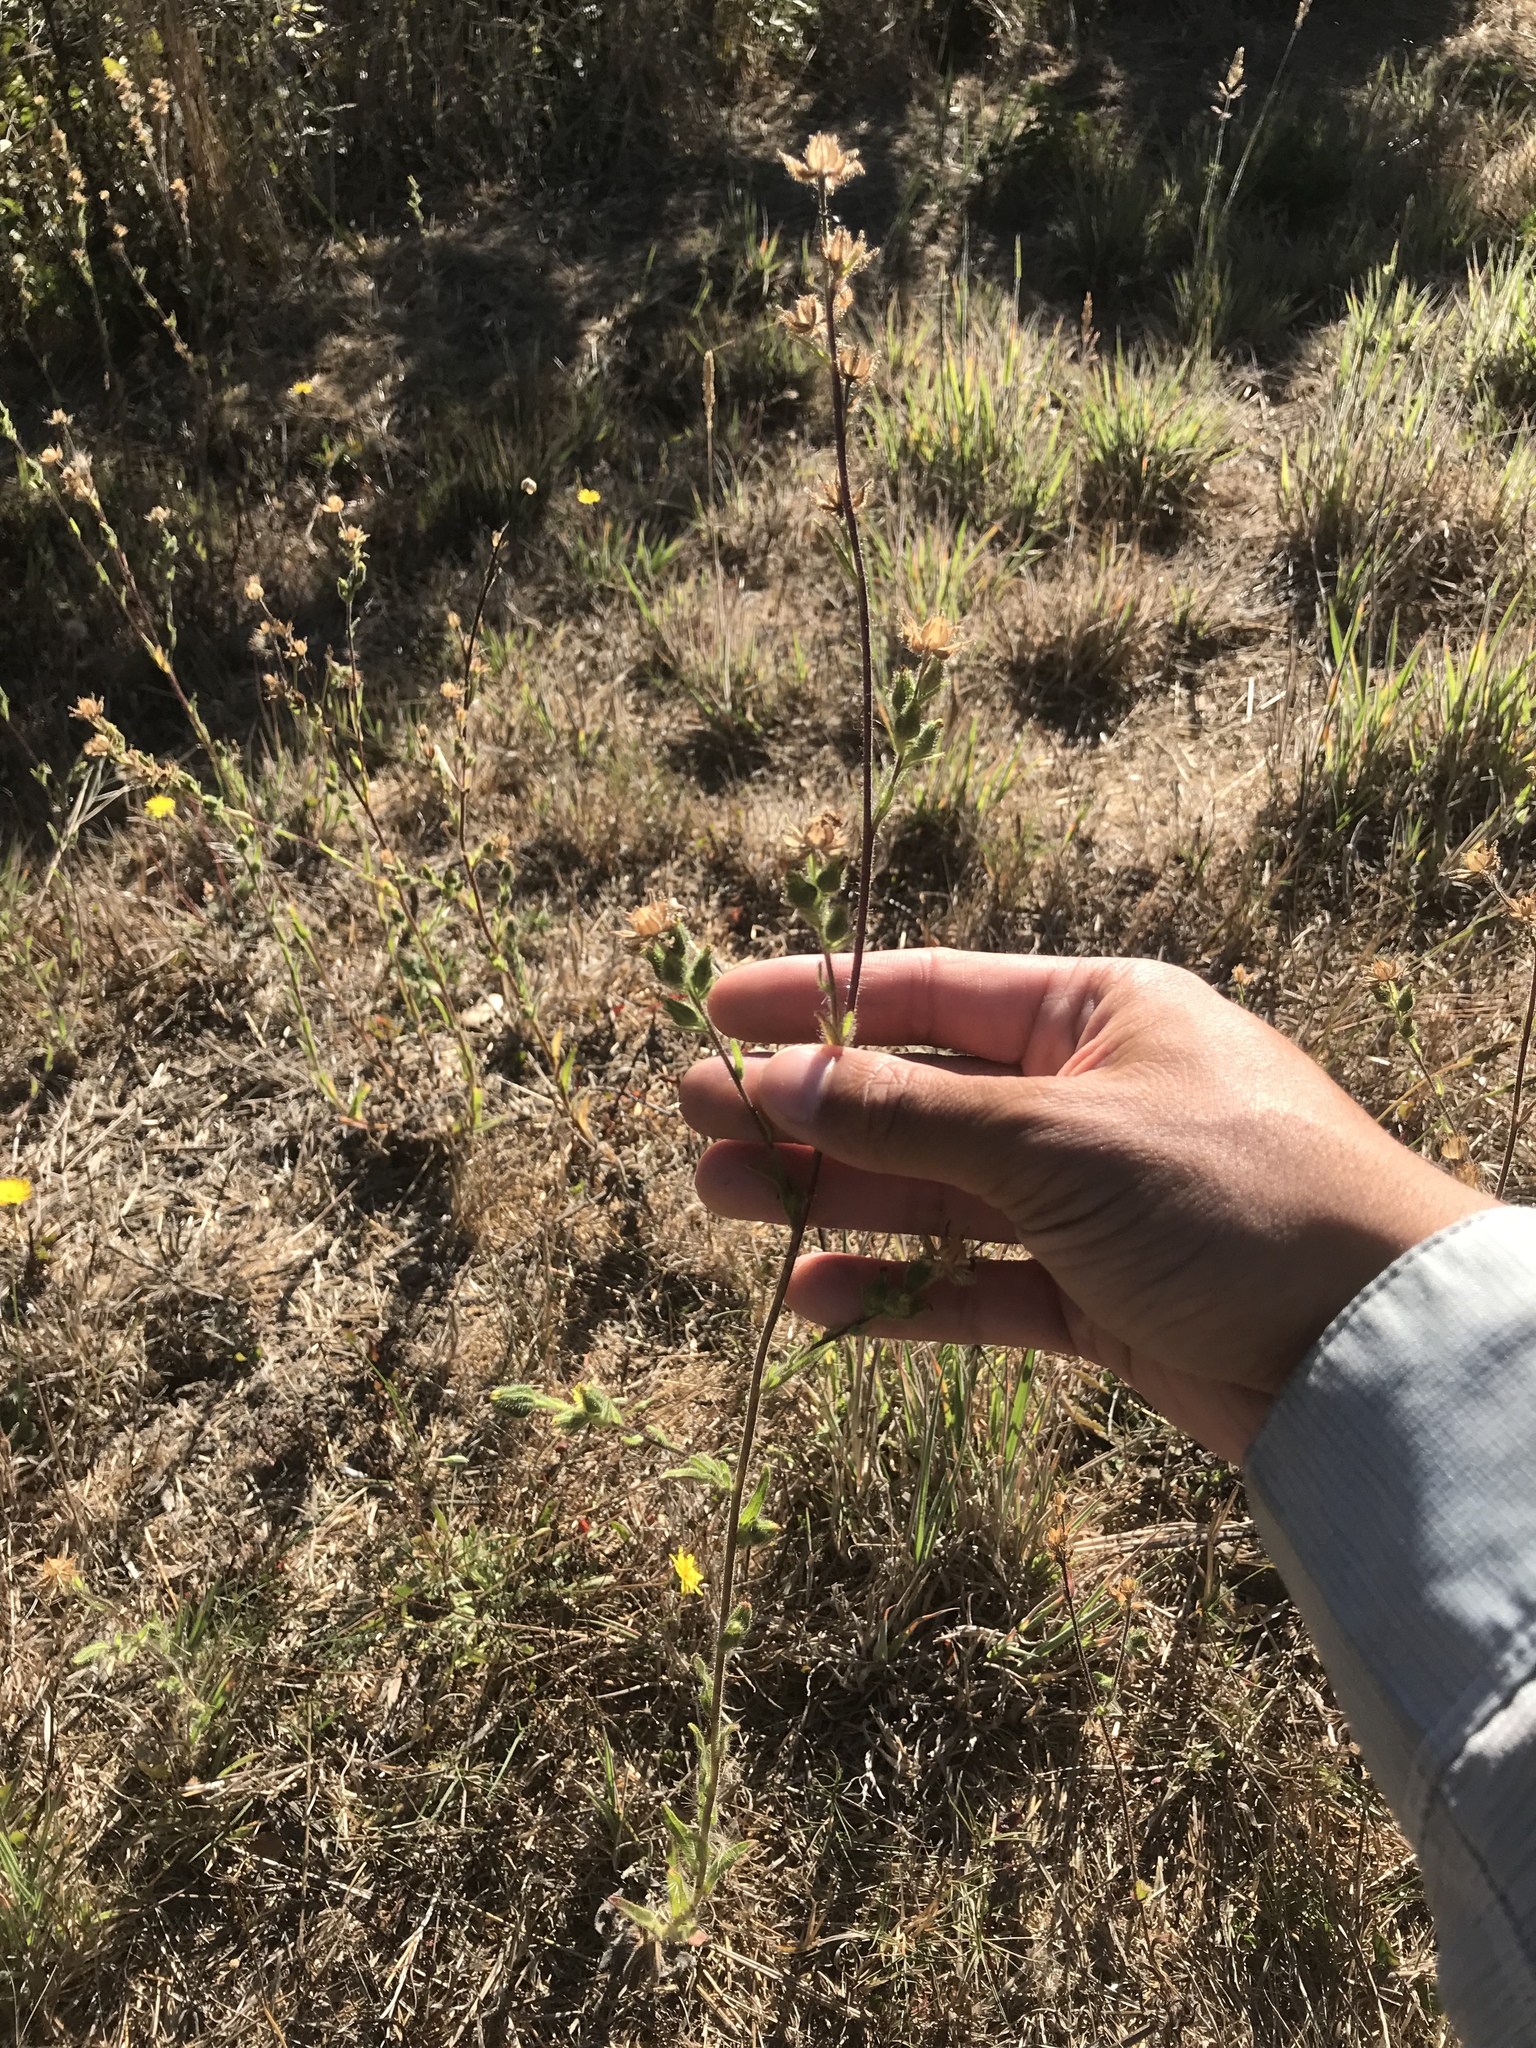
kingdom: Plantae
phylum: Tracheophyta
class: Magnoliopsida
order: Asterales
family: Asteraceae
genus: Madia
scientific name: Madia gracilis
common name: Grassy tarweed
